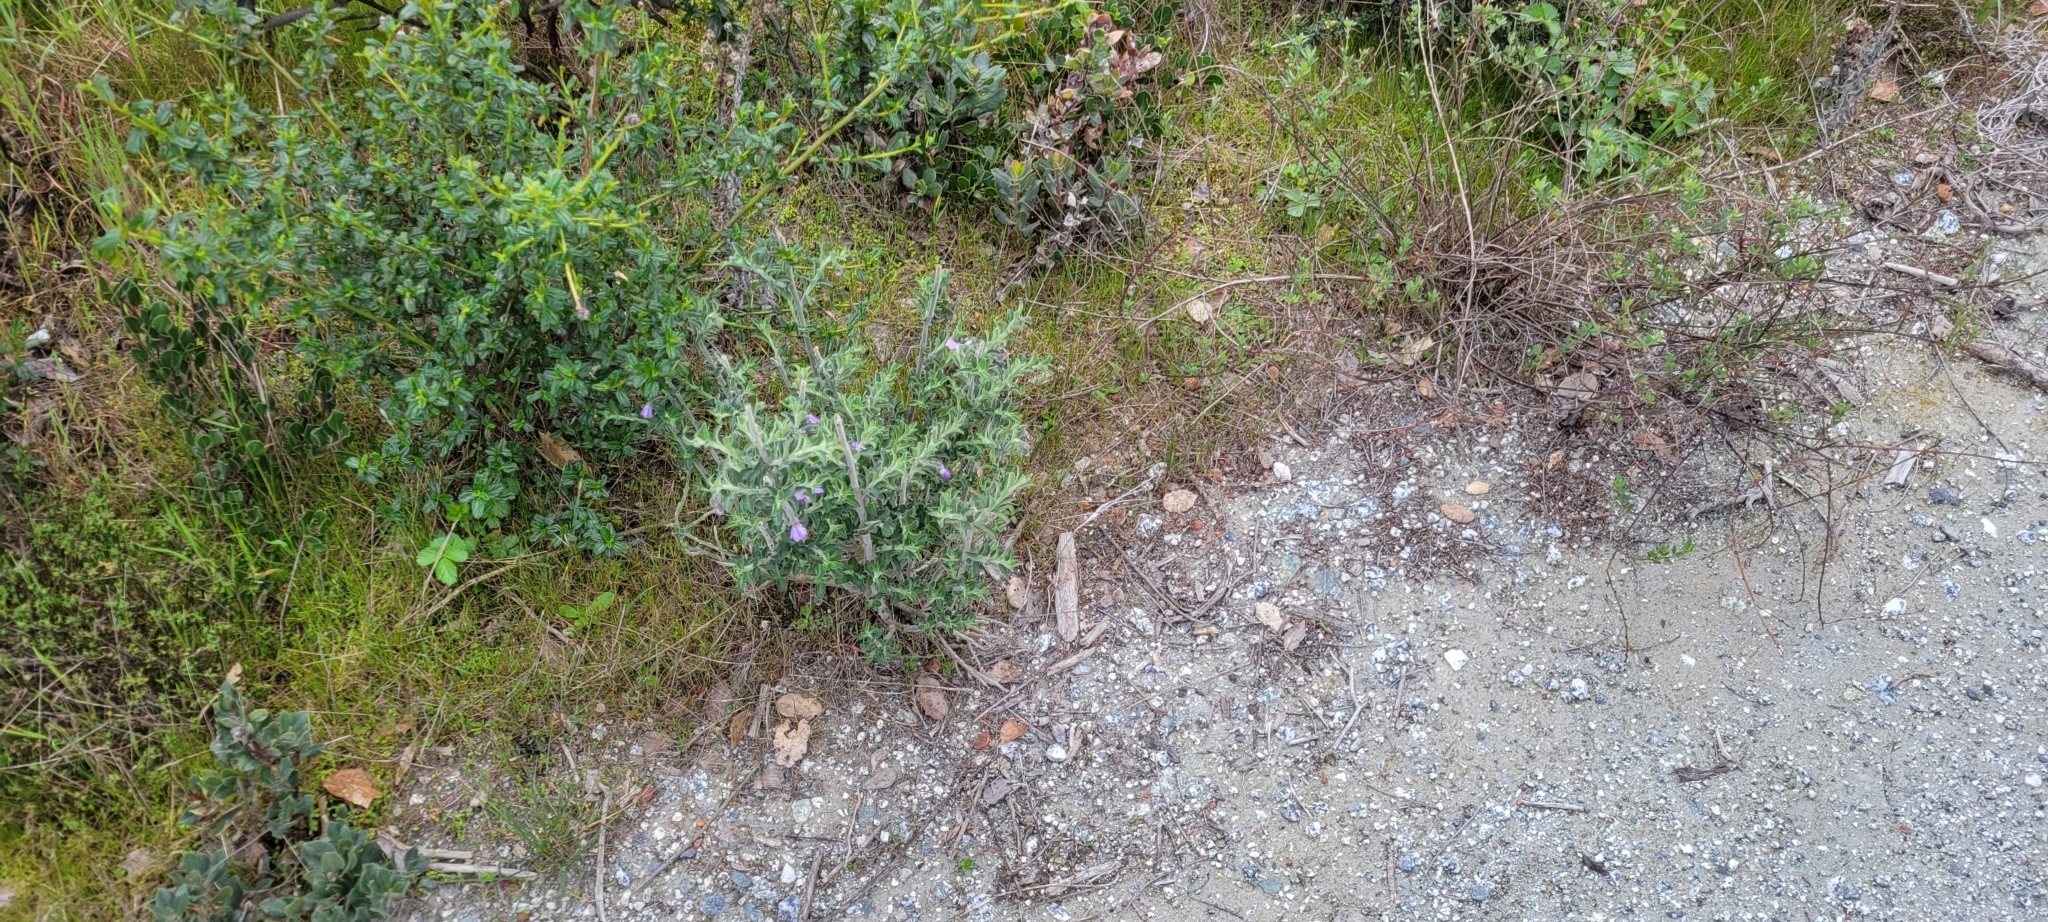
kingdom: Plantae
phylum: Tracheophyta
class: Magnoliopsida
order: Solanales
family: Solanaceae
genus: Solanum
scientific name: Solanum umbelliferum
